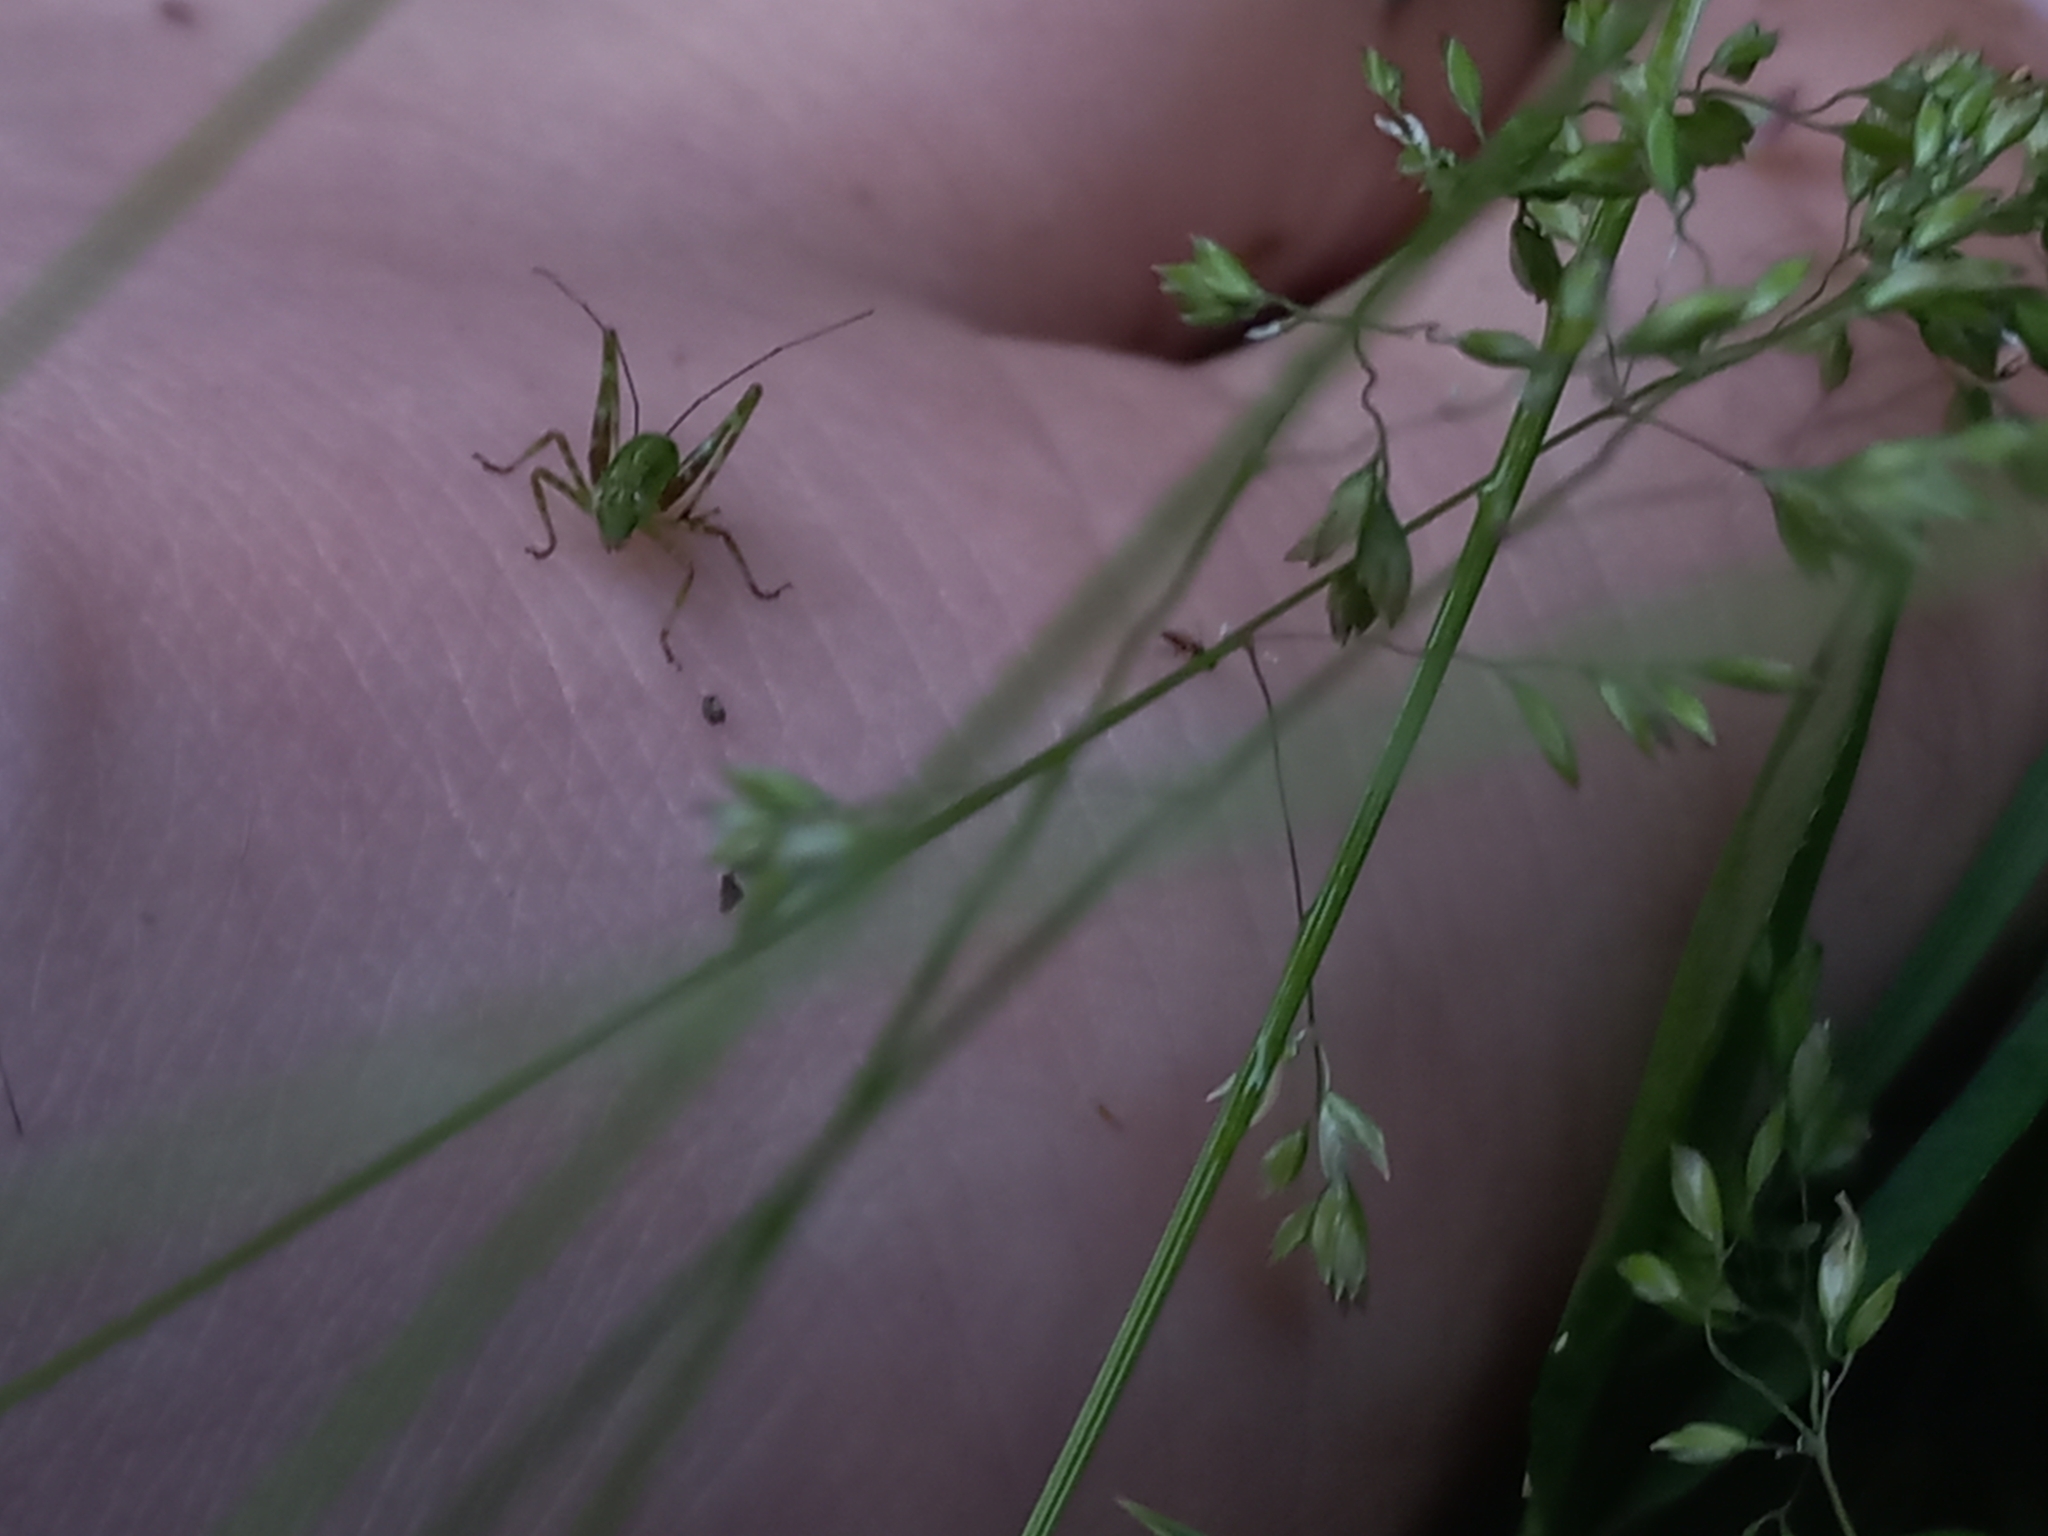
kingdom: Animalia
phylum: Arthropoda
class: Insecta
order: Orthoptera
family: Tettigoniidae
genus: Caedicia
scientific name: Caedicia simplex
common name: Common garden katydid
